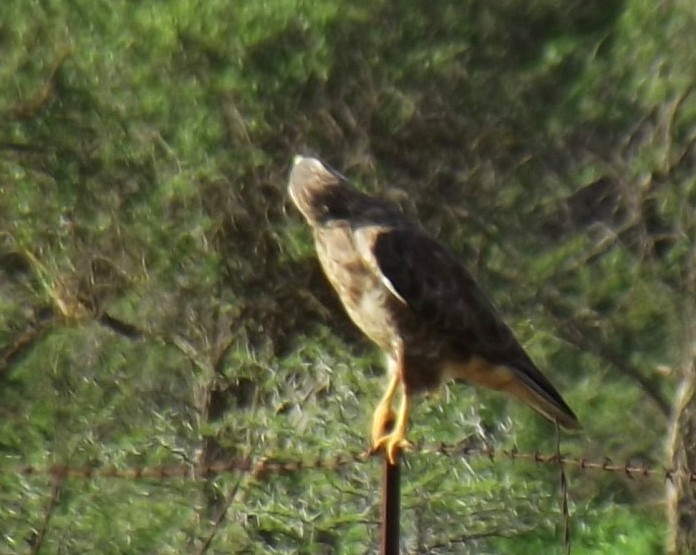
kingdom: Animalia
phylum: Chordata
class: Aves
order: Accipitriformes
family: Accipitridae
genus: Buteo
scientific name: Buteo buteo
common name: Common buzzard
